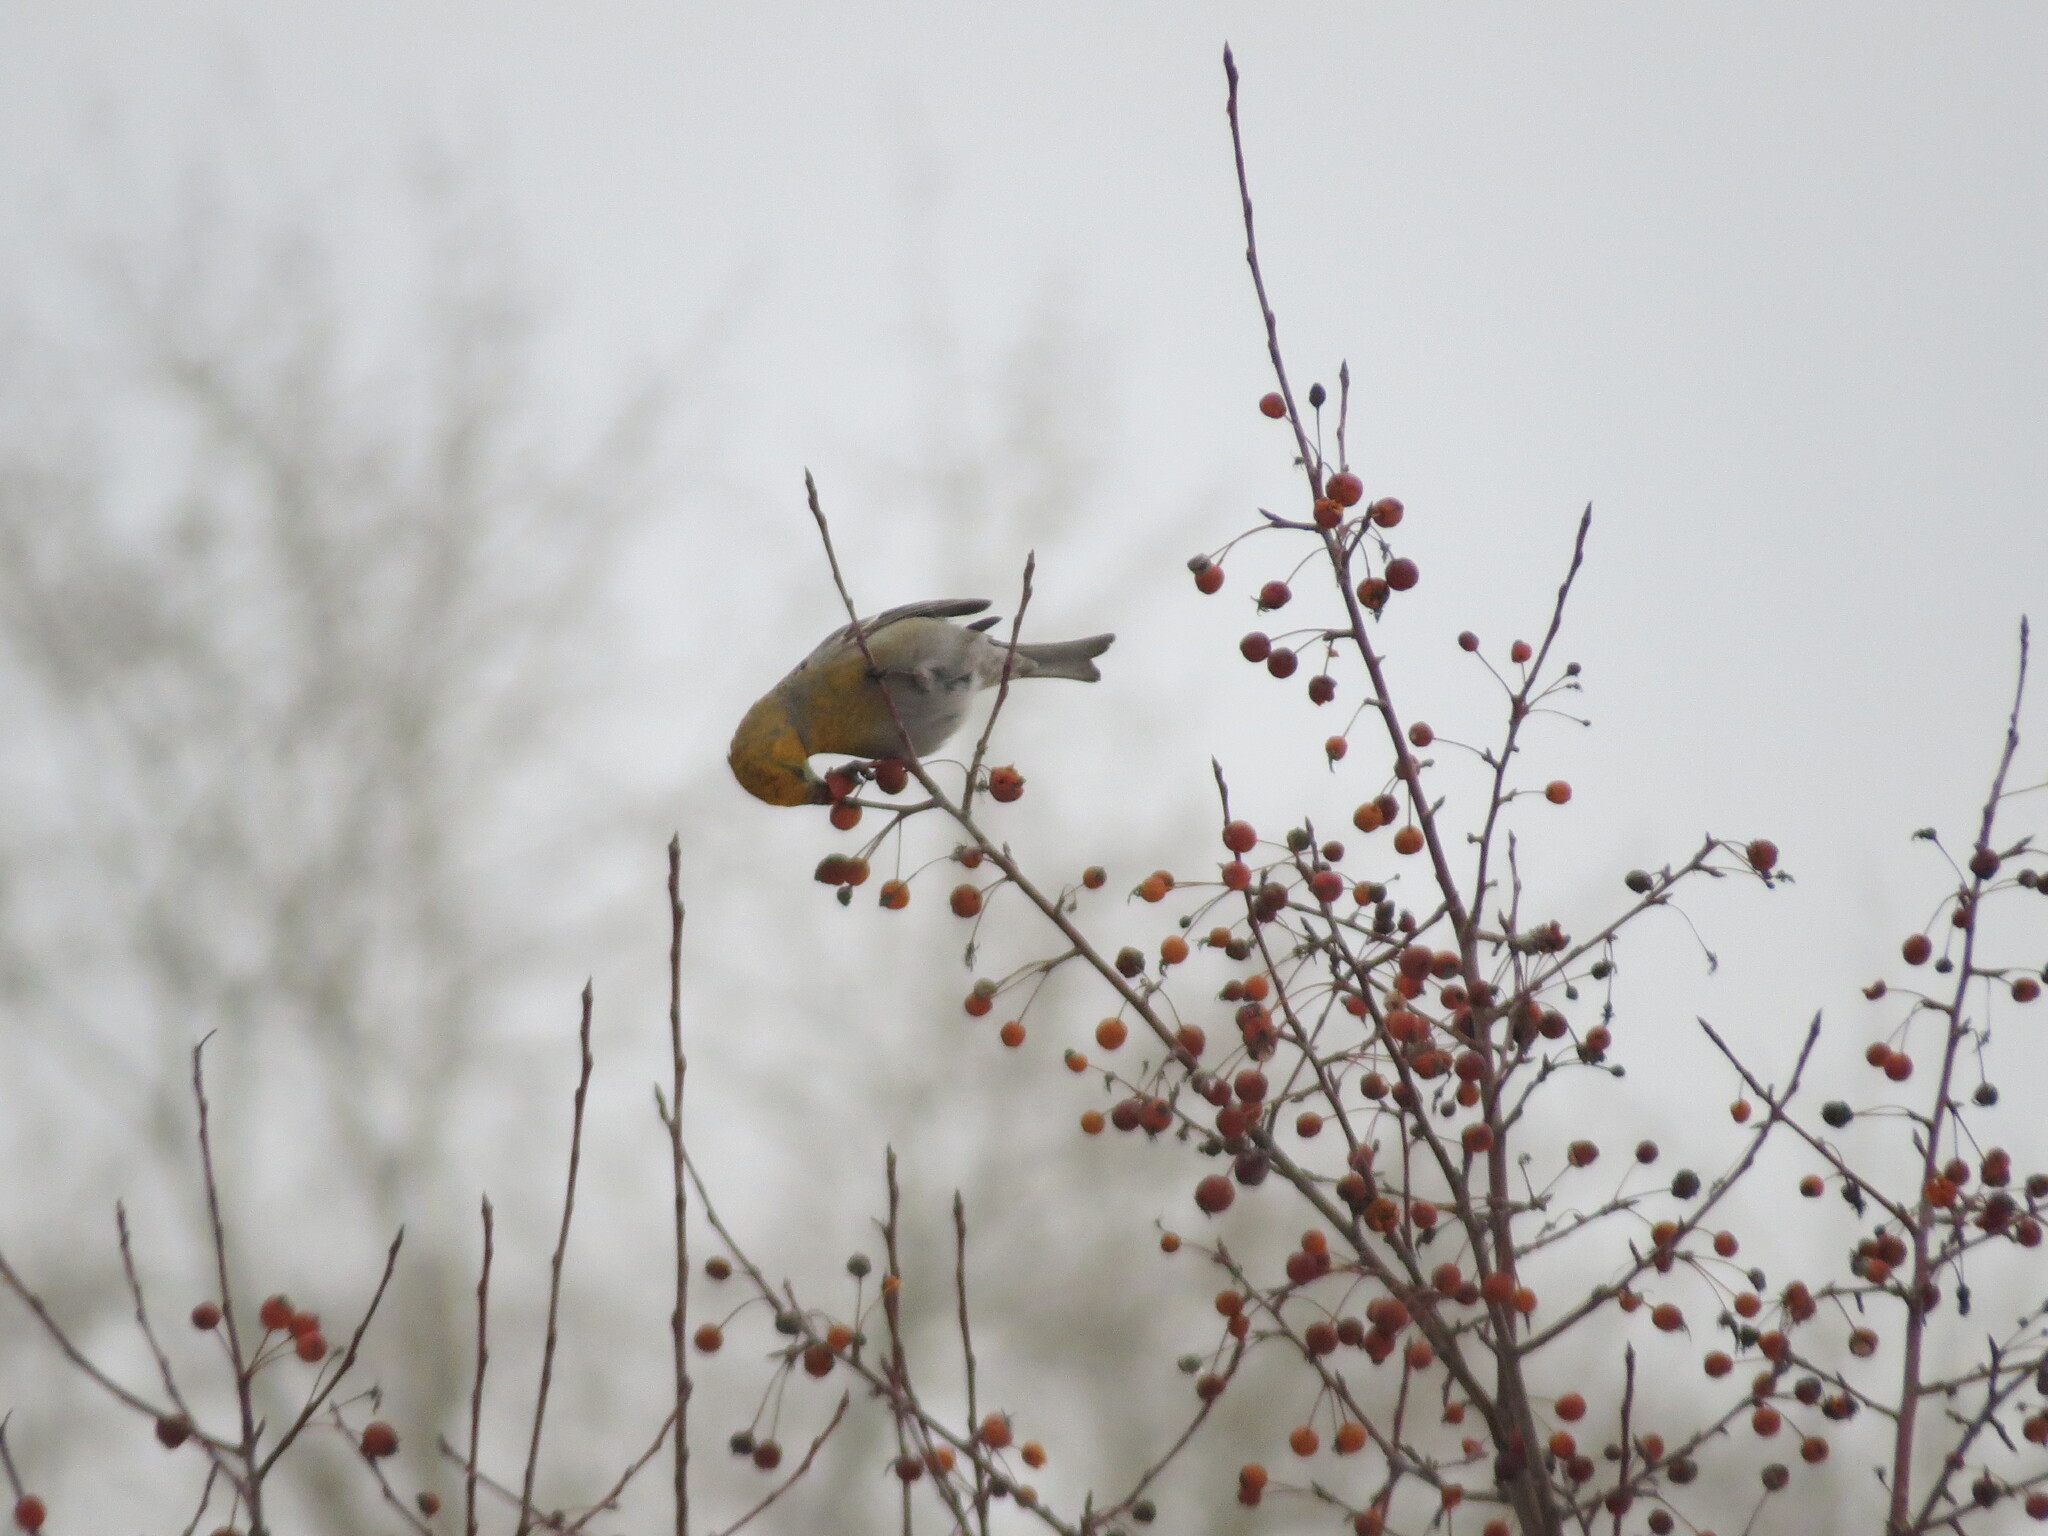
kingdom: Animalia
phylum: Chordata
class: Aves
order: Passeriformes
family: Fringillidae
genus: Pinicola
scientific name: Pinicola enucleator
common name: Pine grosbeak
